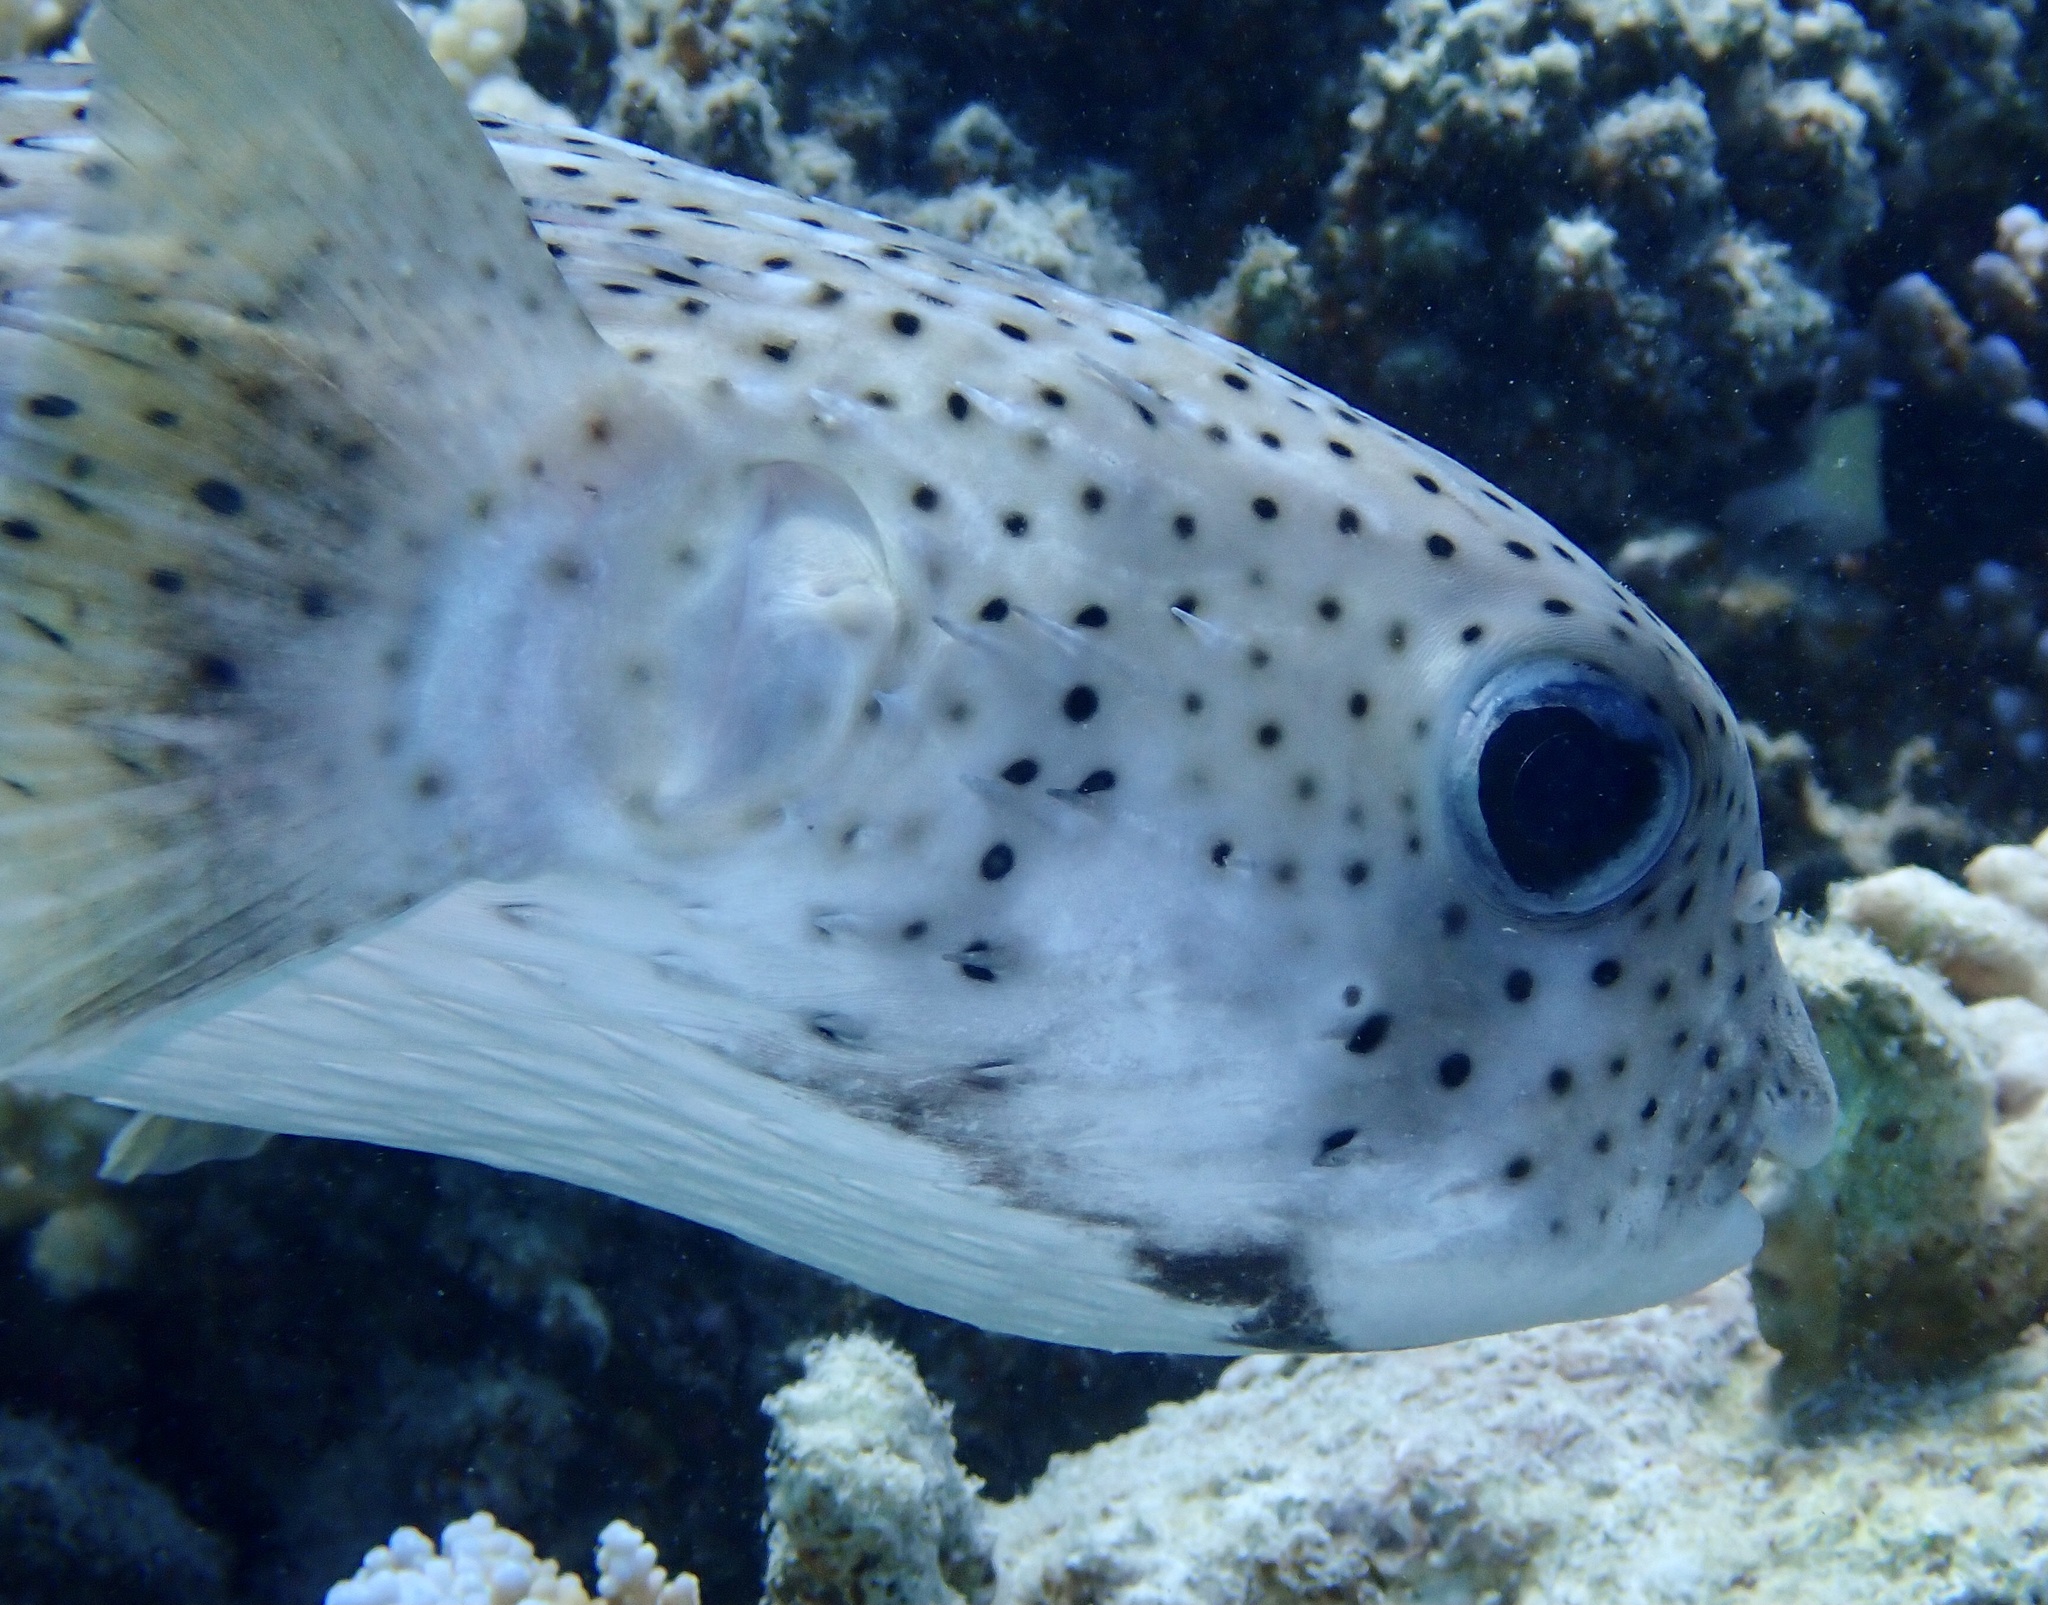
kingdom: Animalia
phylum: Chordata
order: Tetraodontiformes
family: Diodontidae
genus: Diodon
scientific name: Diodon hystrix
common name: Giant porcupinefish
